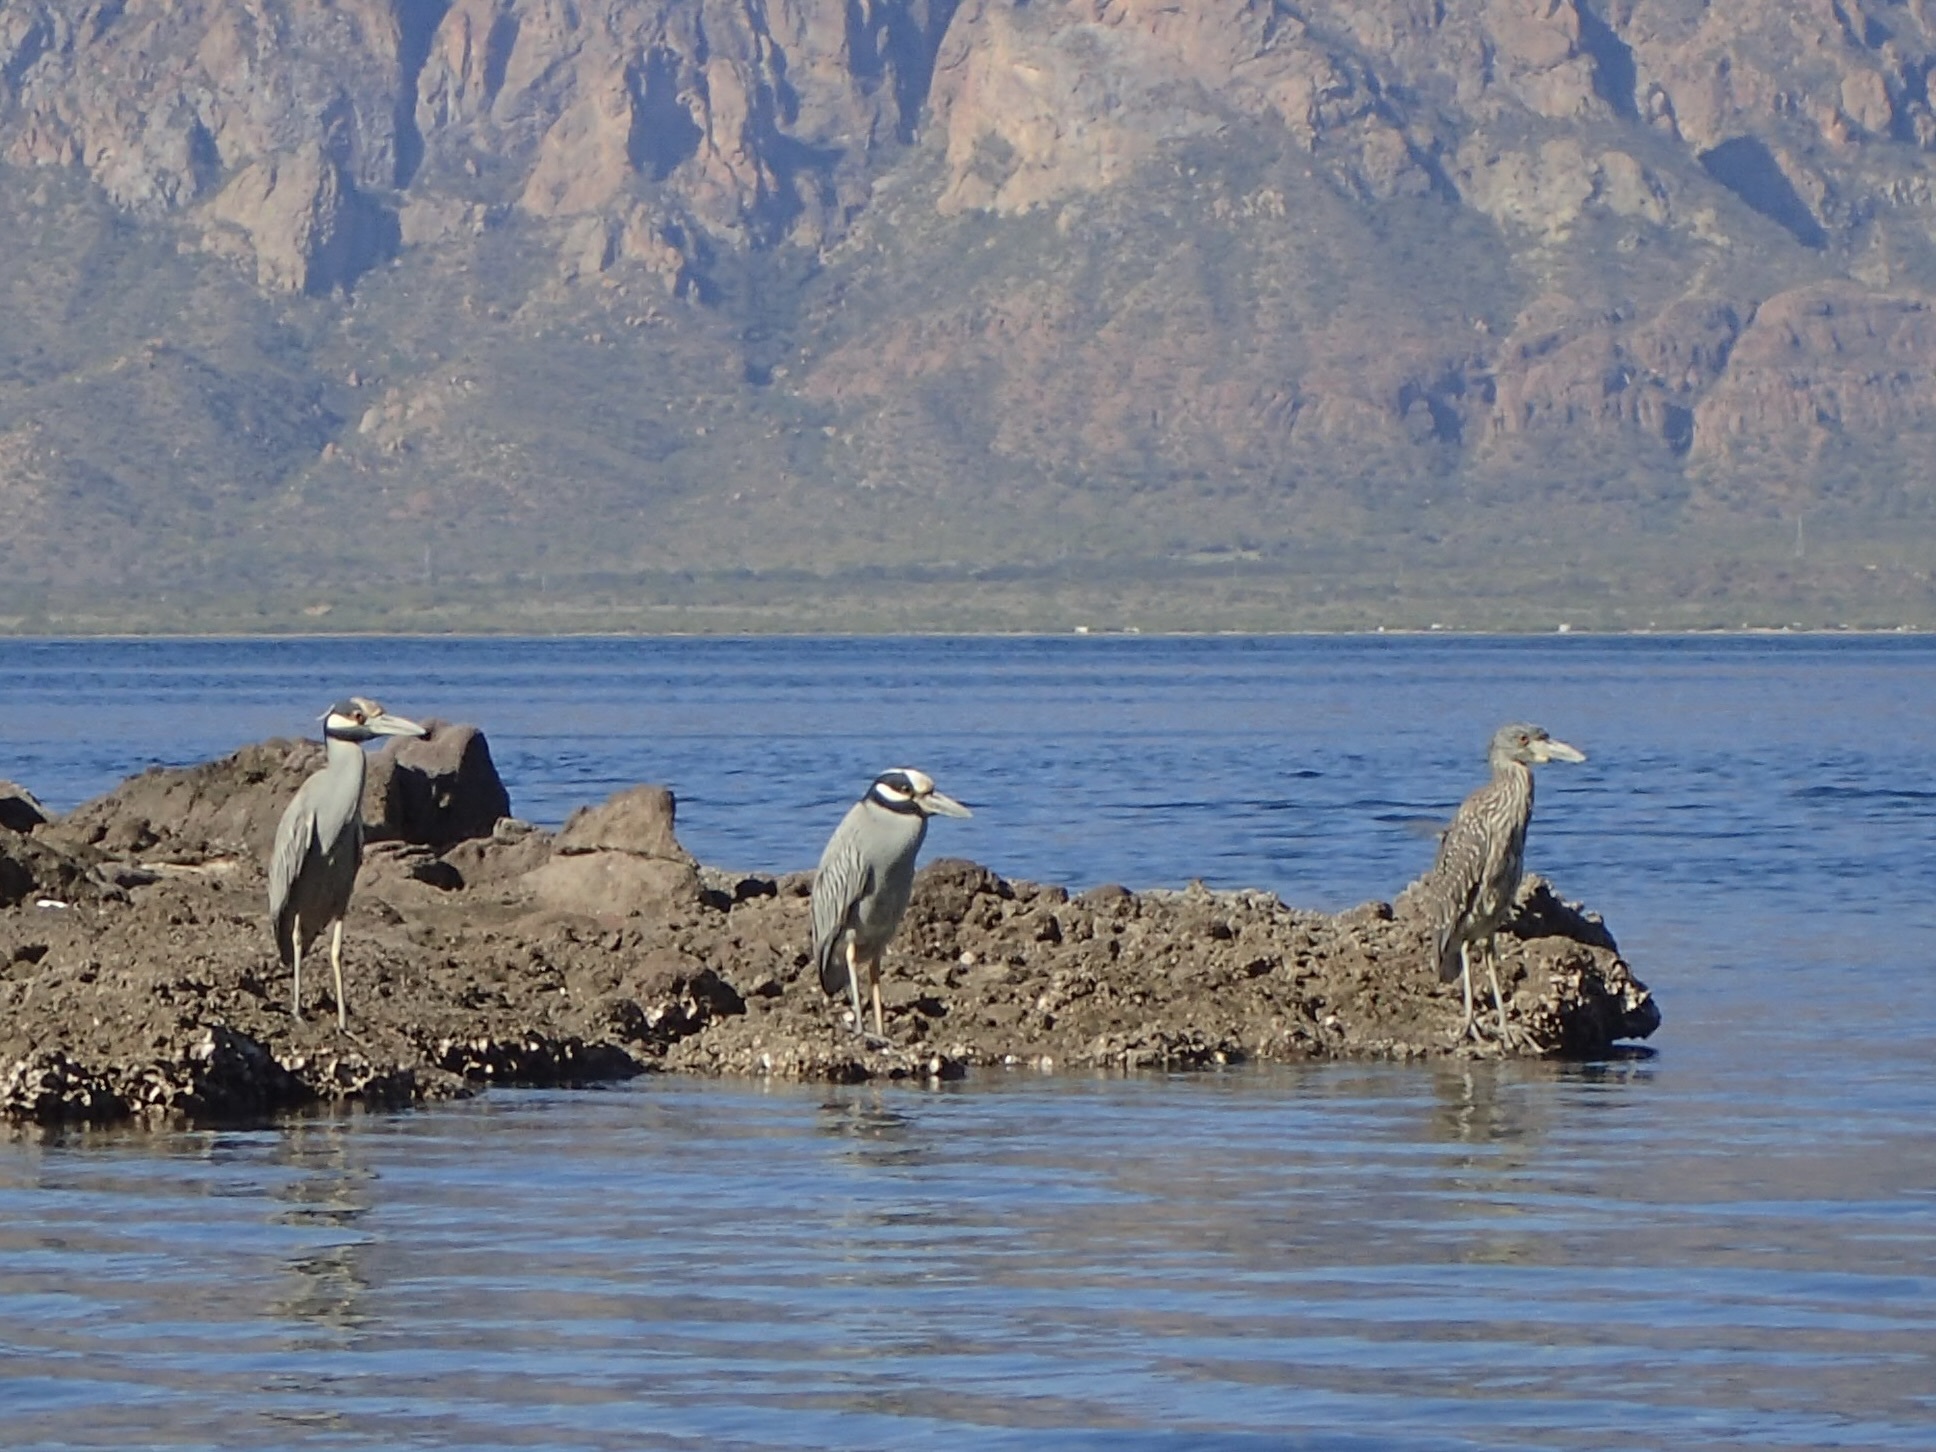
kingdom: Animalia
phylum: Chordata
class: Aves
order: Pelecaniformes
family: Ardeidae
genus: Nyctanassa
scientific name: Nyctanassa violacea
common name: Yellow-crowned night heron
